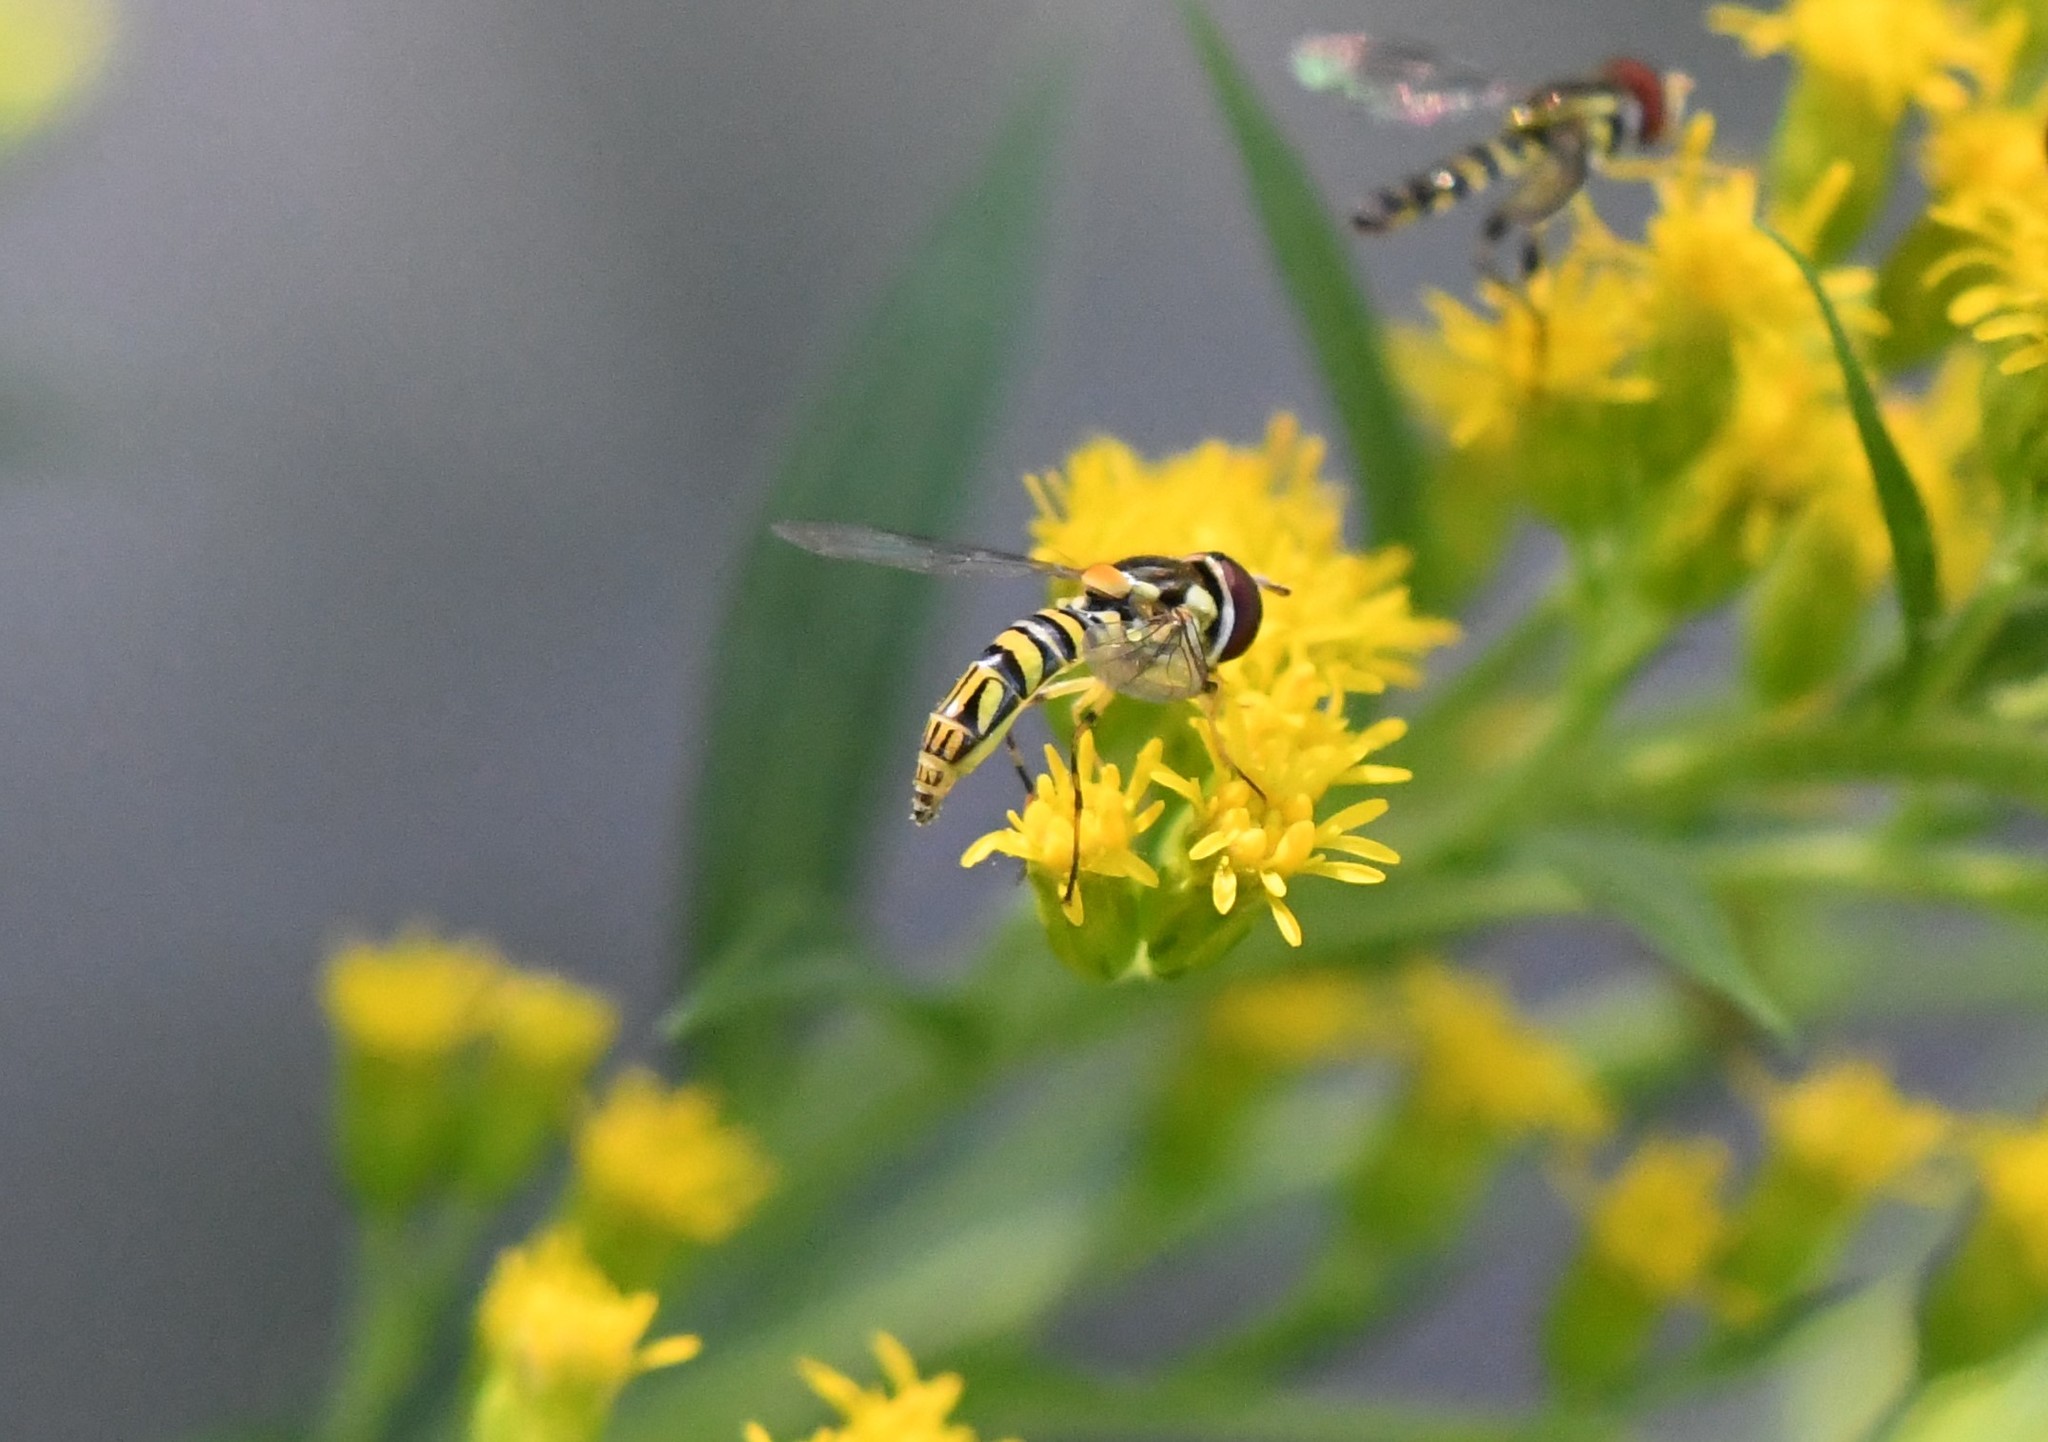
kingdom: Animalia
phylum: Arthropoda
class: Insecta
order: Diptera
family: Syrphidae
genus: Allograpta
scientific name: Allograpta obliqua
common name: Common oblique syrphid
